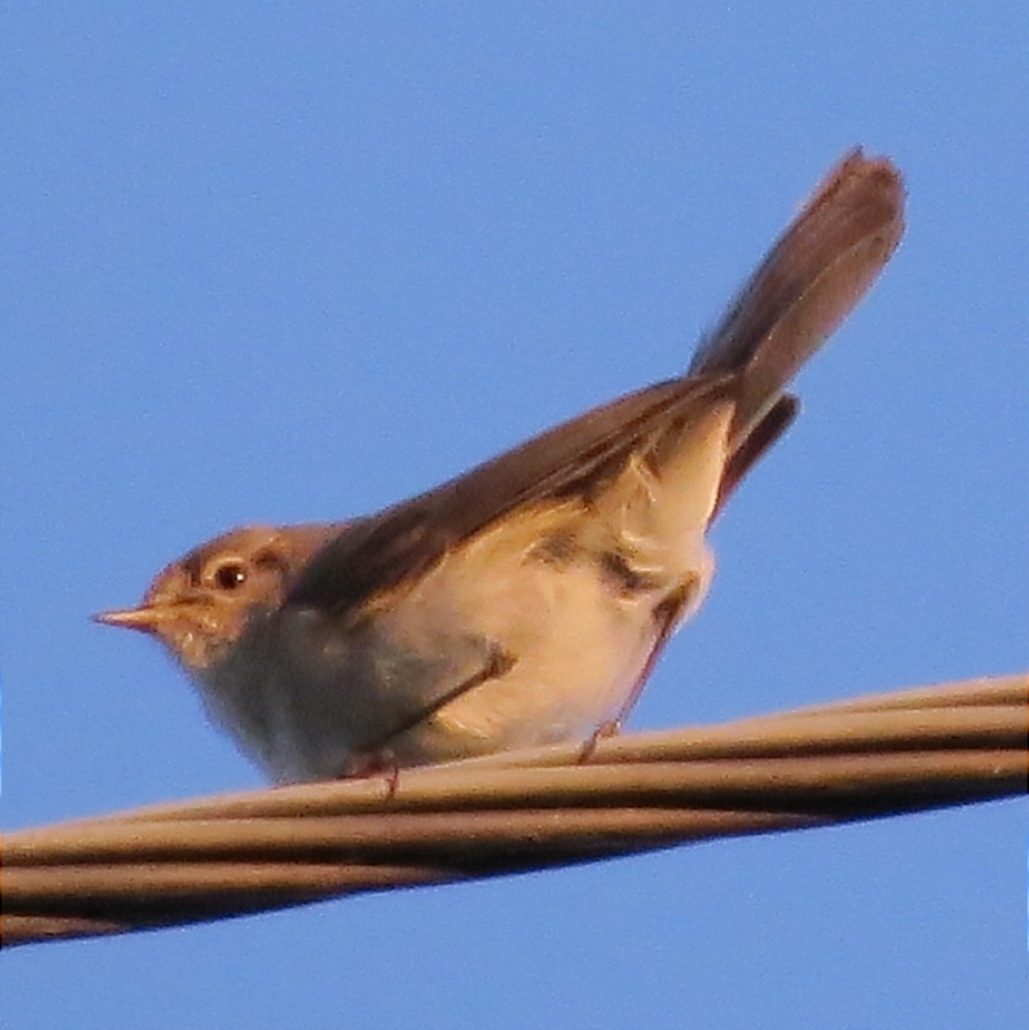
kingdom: Animalia
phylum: Chordata
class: Aves
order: Passeriformes
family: Phylloscopidae
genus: Phylloscopus
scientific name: Phylloscopus
